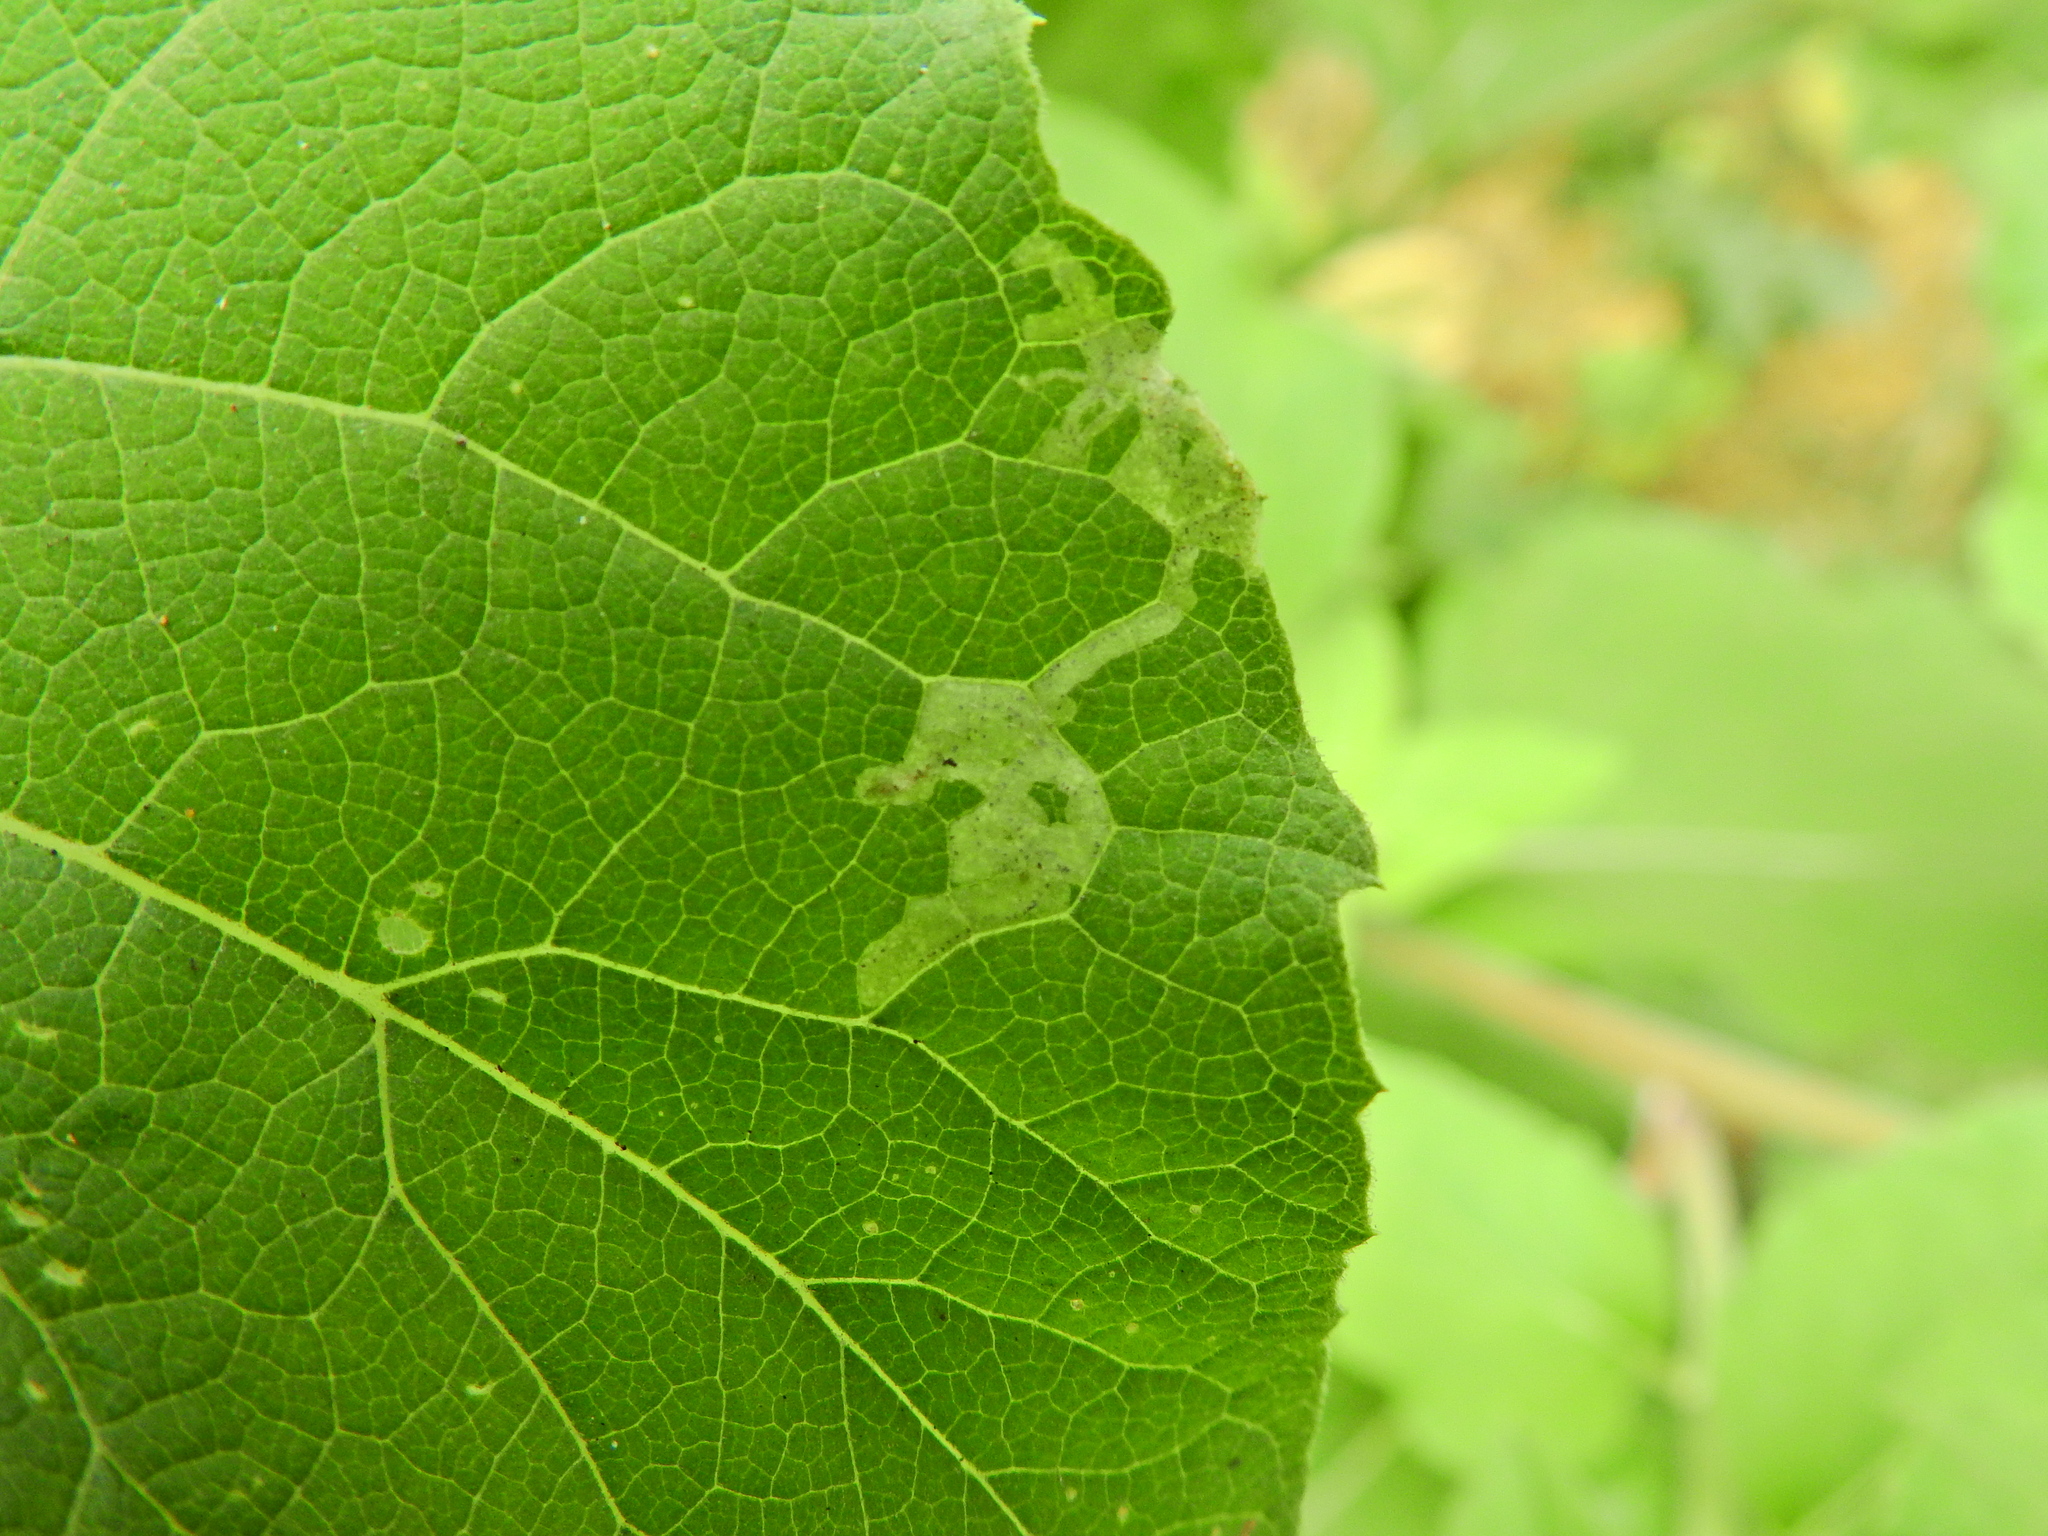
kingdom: Animalia
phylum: Arthropoda
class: Insecta
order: Diptera
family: Agromyzidae
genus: Phytomyza
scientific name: Phytomyza lappae
